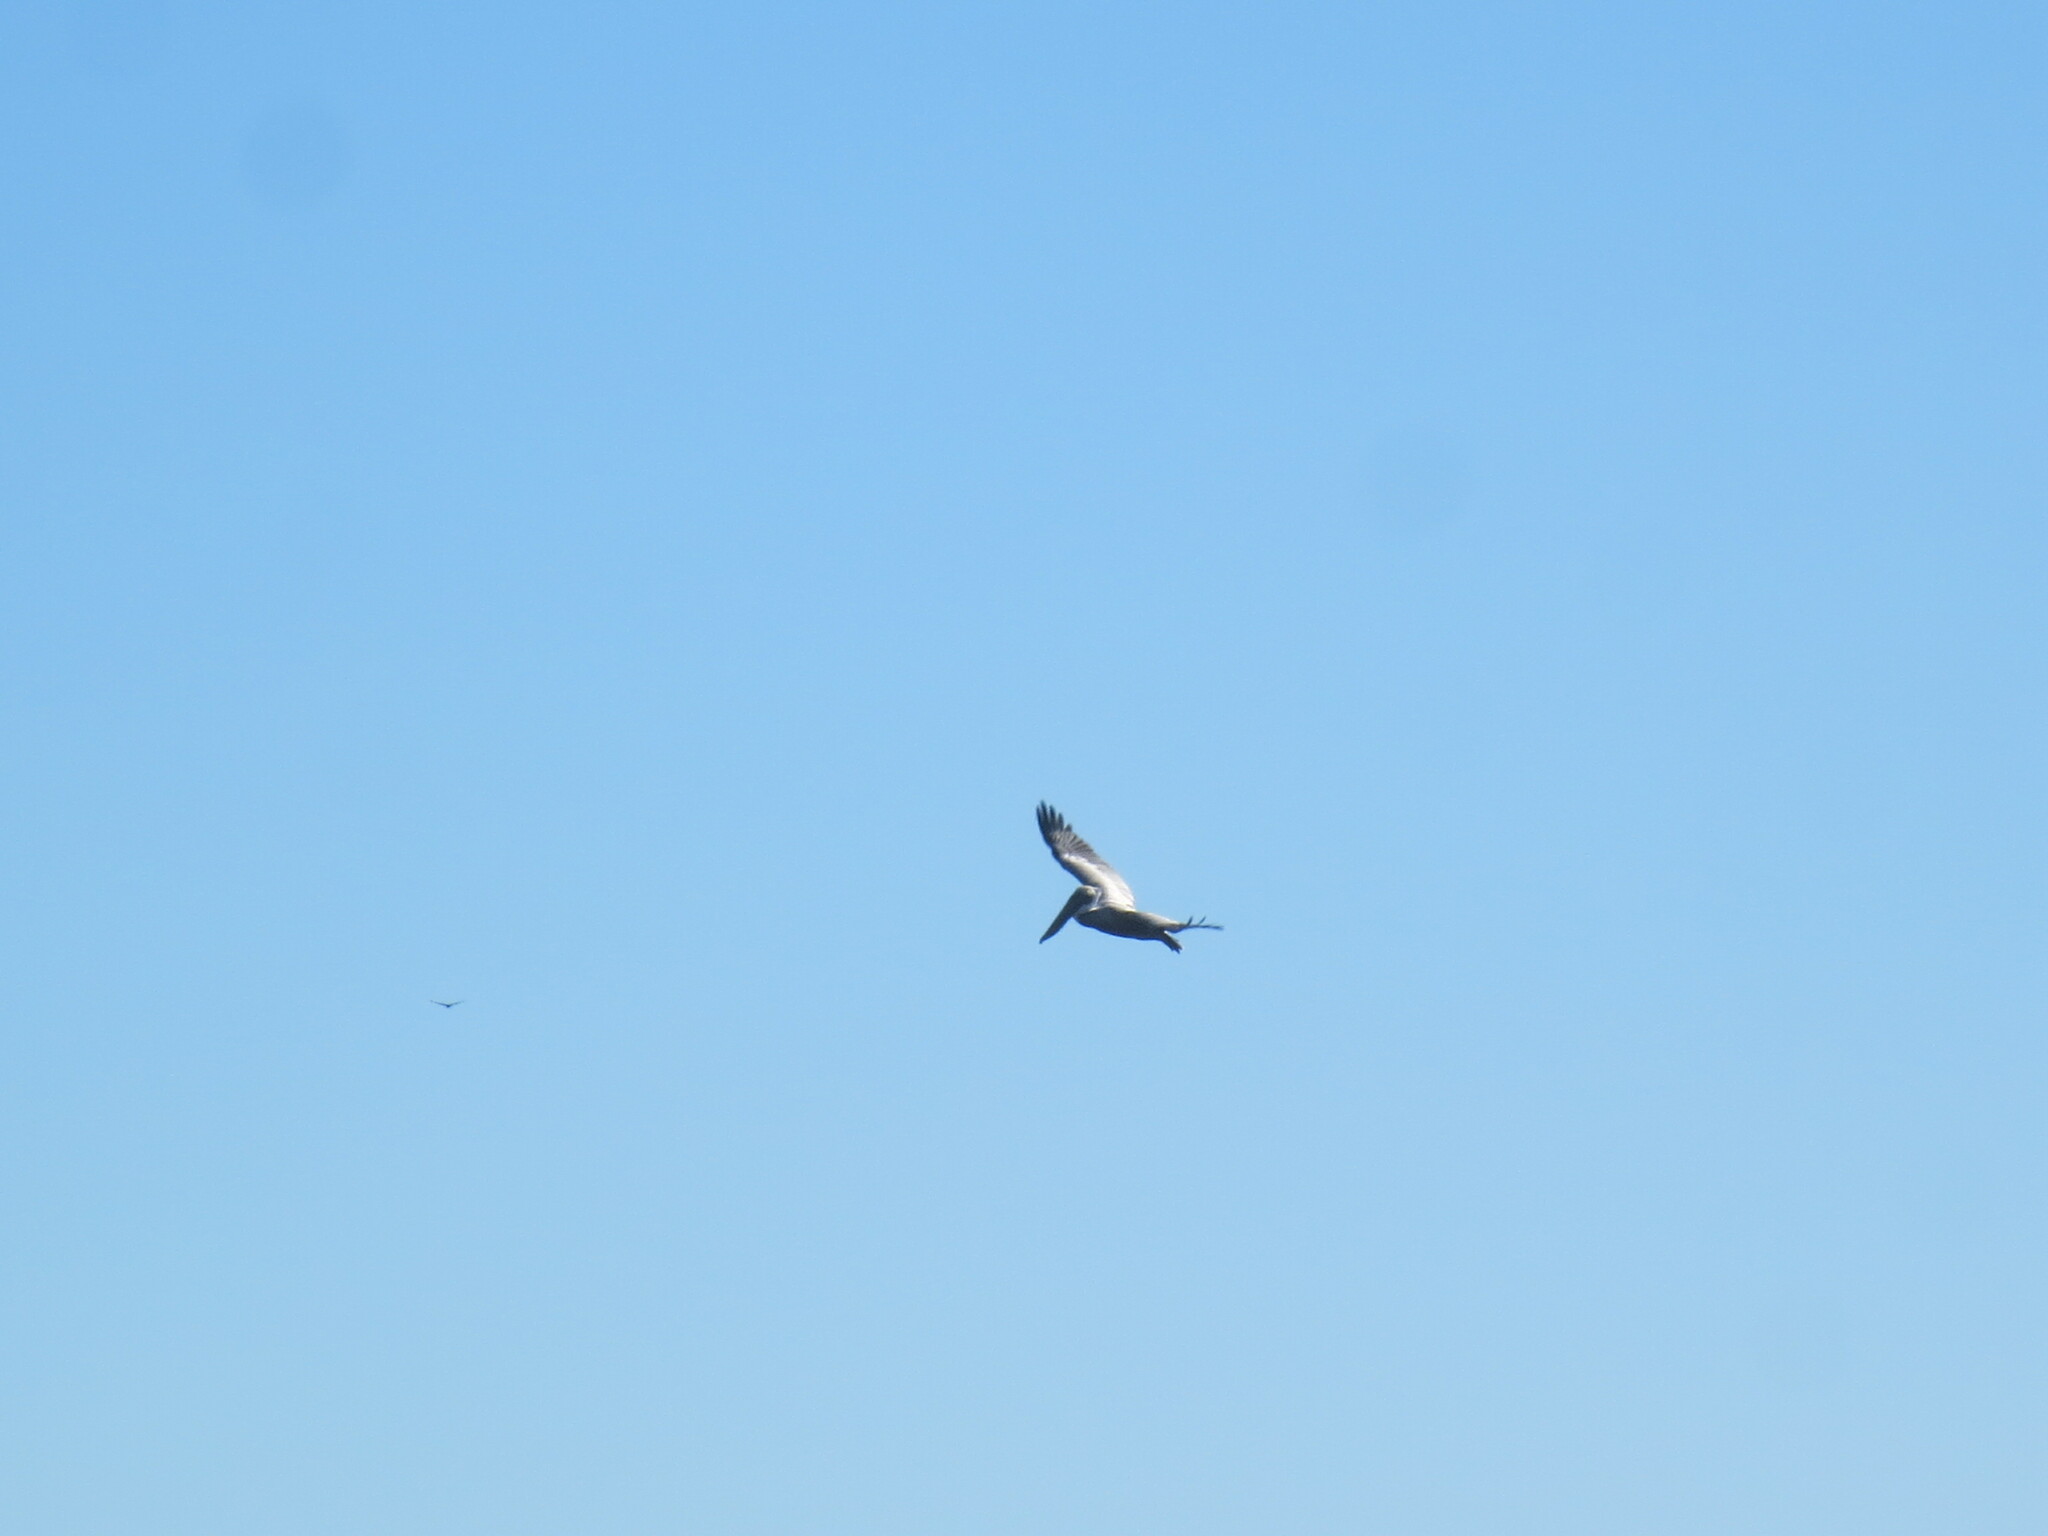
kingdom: Animalia
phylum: Chordata
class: Aves
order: Pelecaniformes
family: Pelecanidae
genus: Pelecanus
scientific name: Pelecanus occidentalis
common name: Brown pelican
